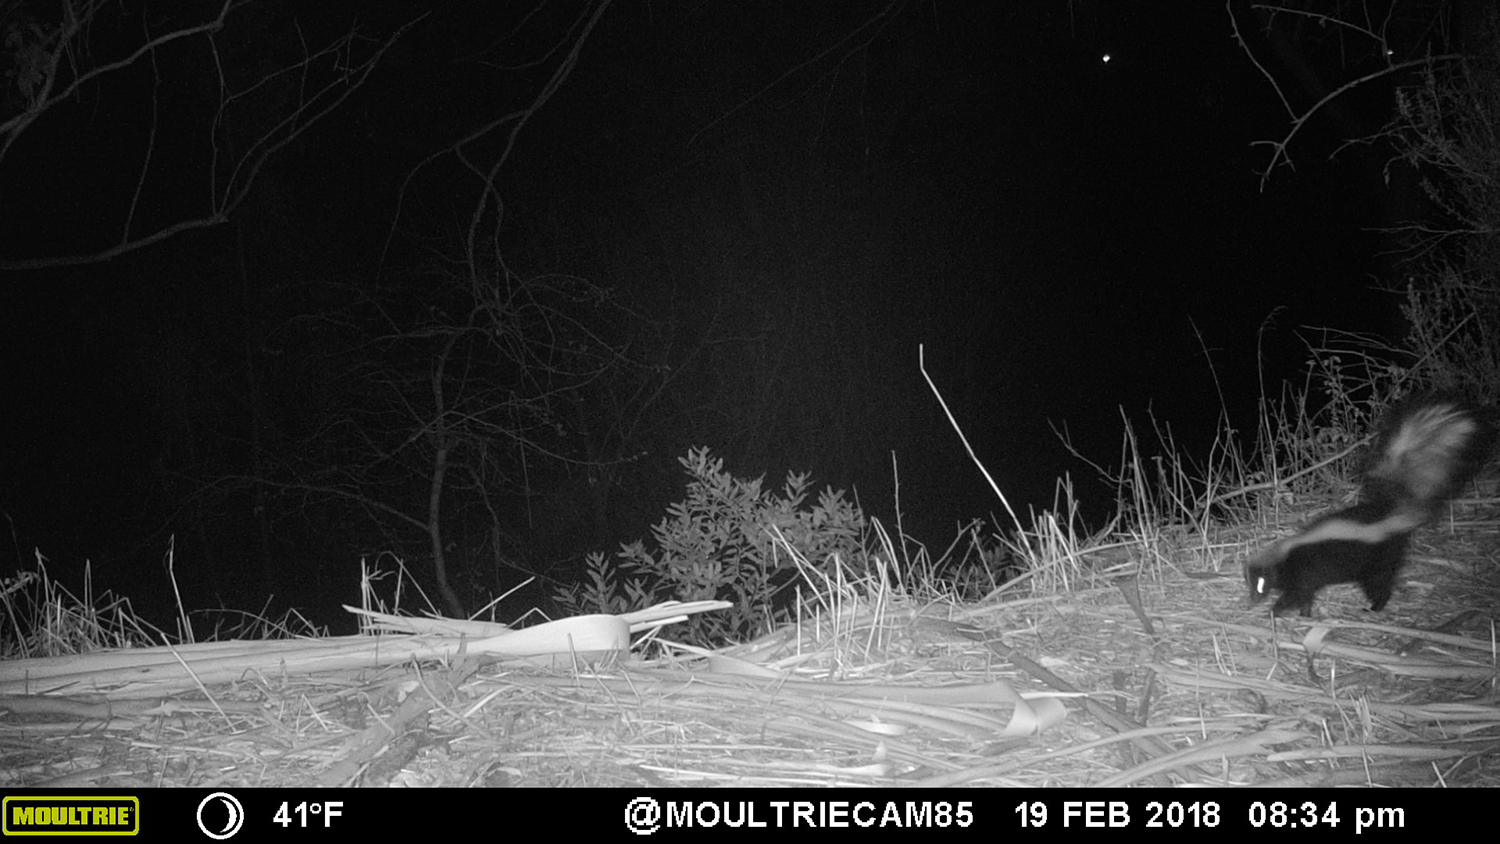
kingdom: Animalia
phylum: Chordata
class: Mammalia
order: Carnivora
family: Mephitidae
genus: Mephitis
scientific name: Mephitis mephitis
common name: Striped skunk
